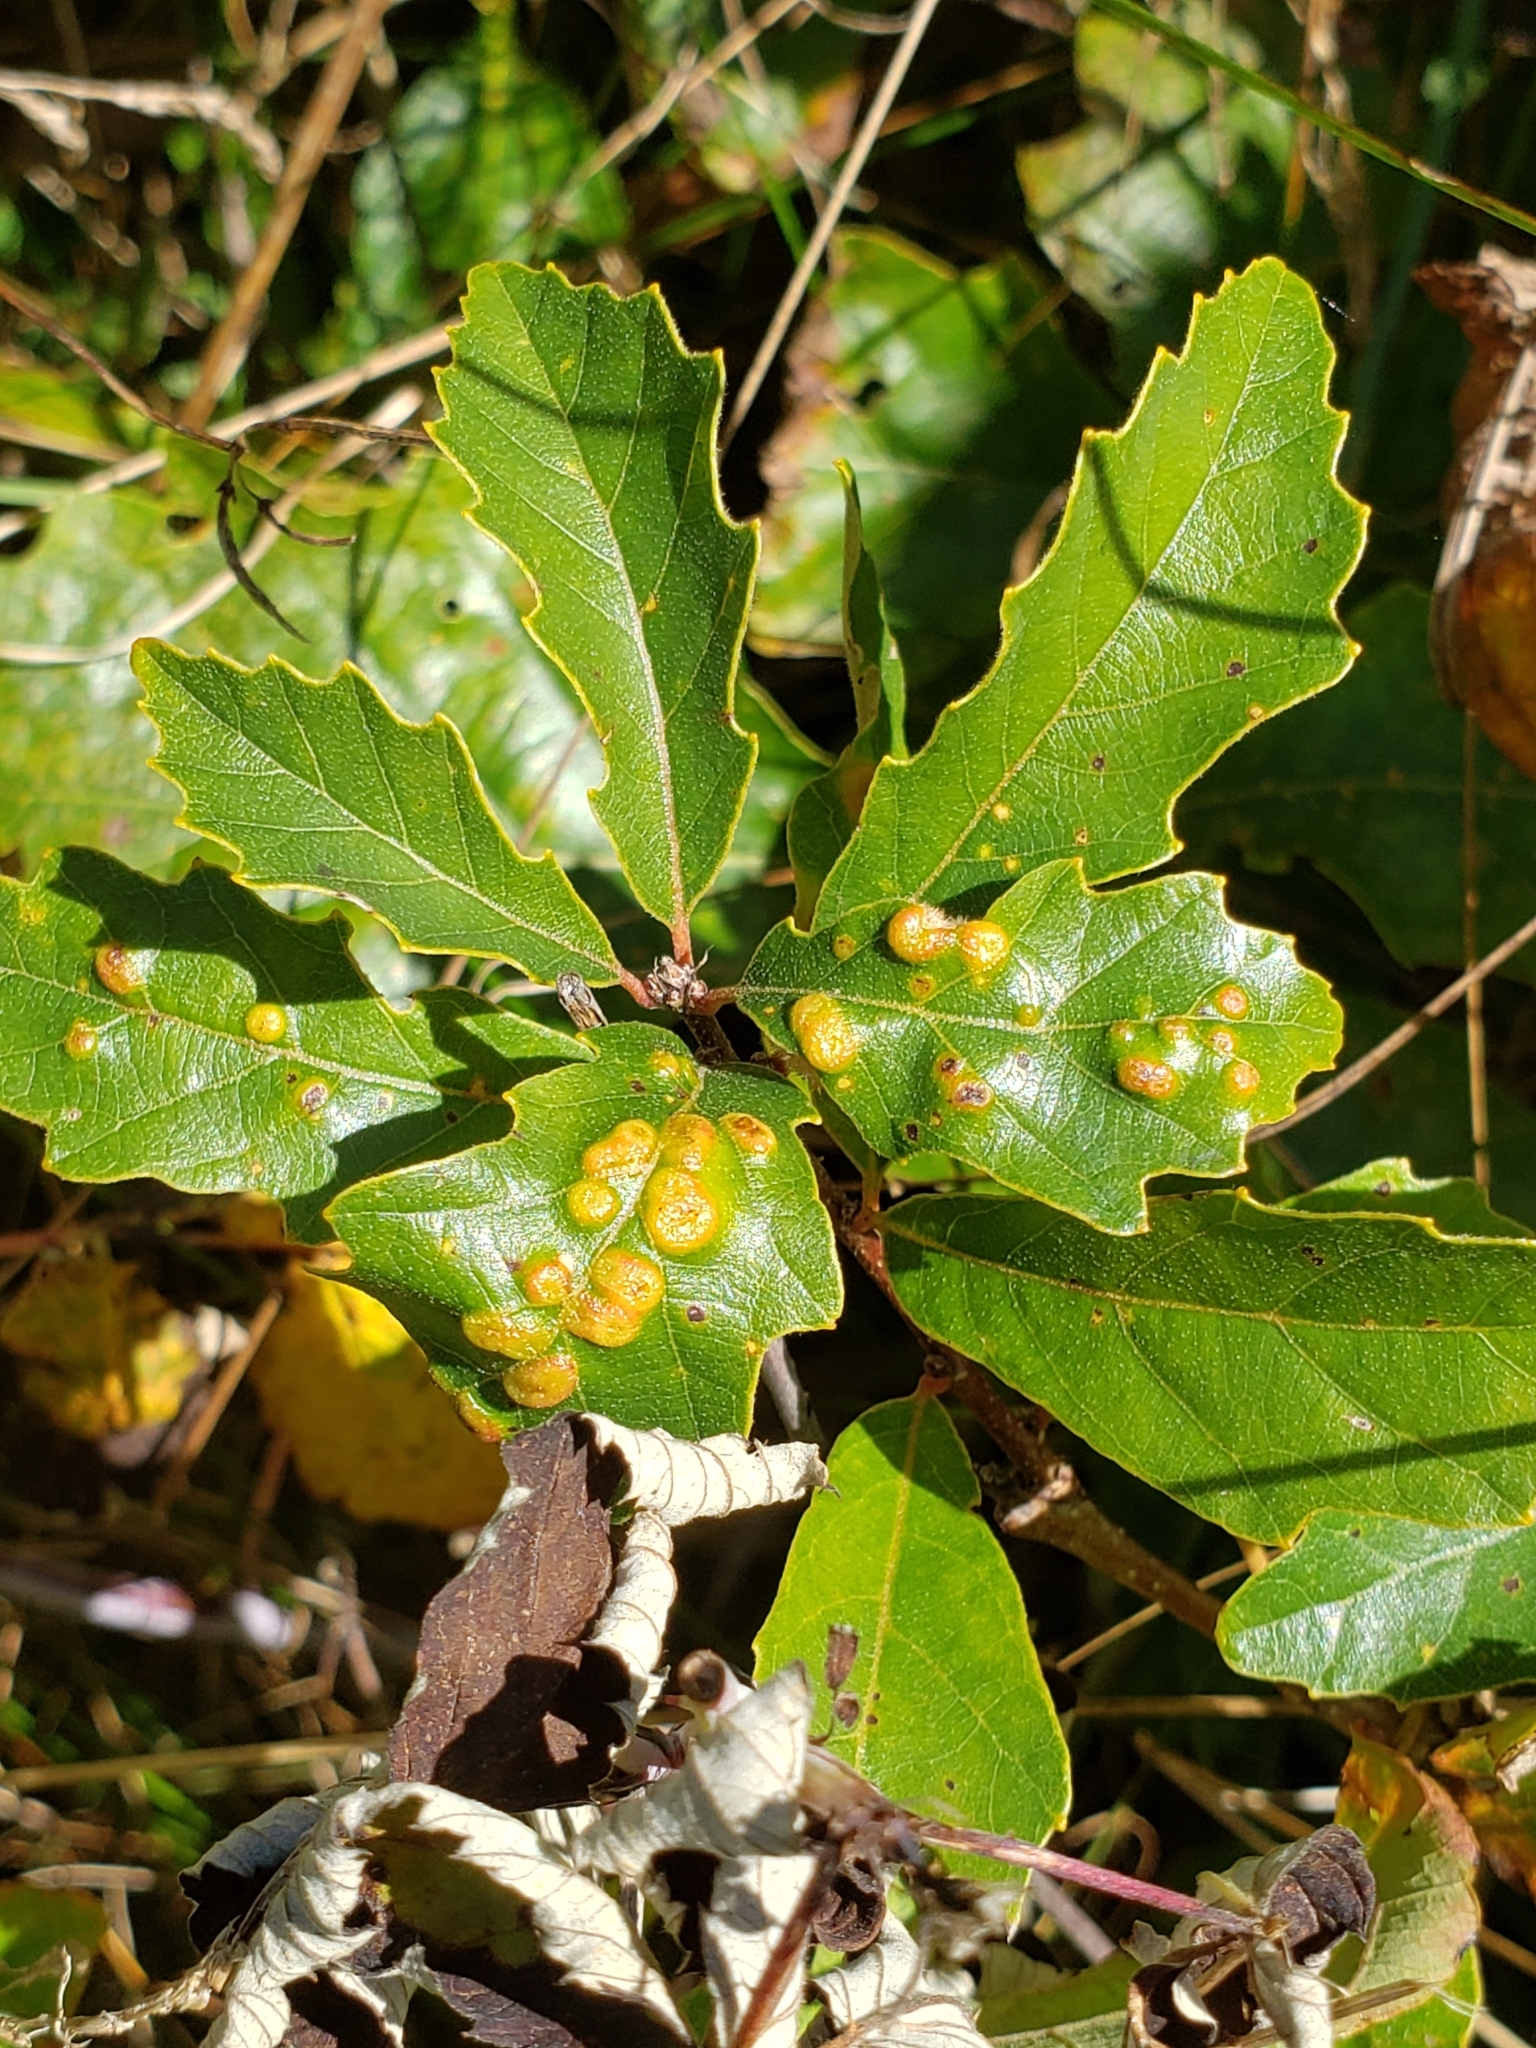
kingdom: Animalia
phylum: Arthropoda
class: Insecta
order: Hymenoptera
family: Cynipidae
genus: Neuroterus
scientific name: Neuroterus quercusverrucarum
